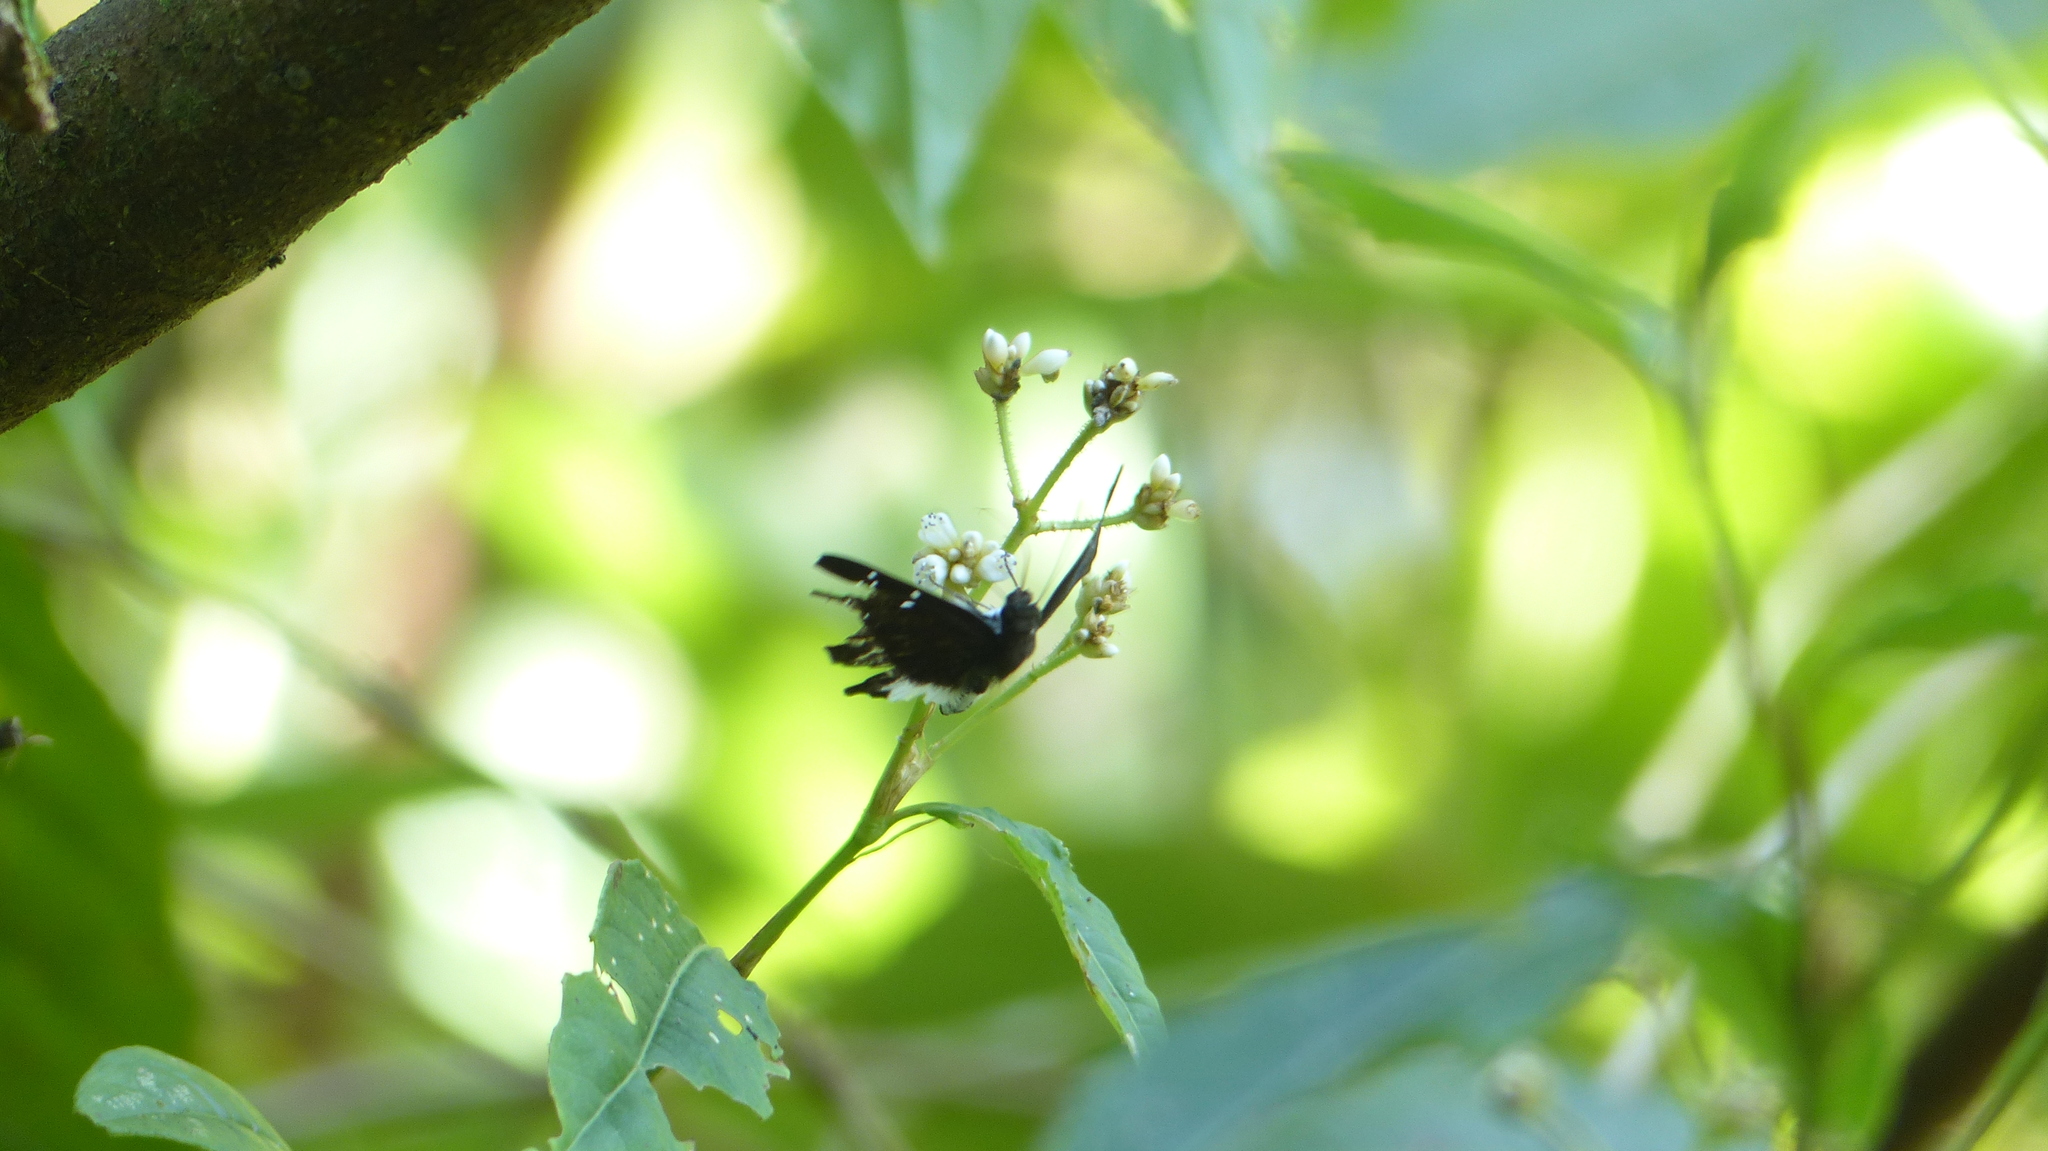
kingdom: Animalia
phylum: Arthropoda
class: Insecta
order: Lepidoptera
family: Hesperiidae
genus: Celaenorrhinus
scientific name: Celaenorrhinus leucocera
